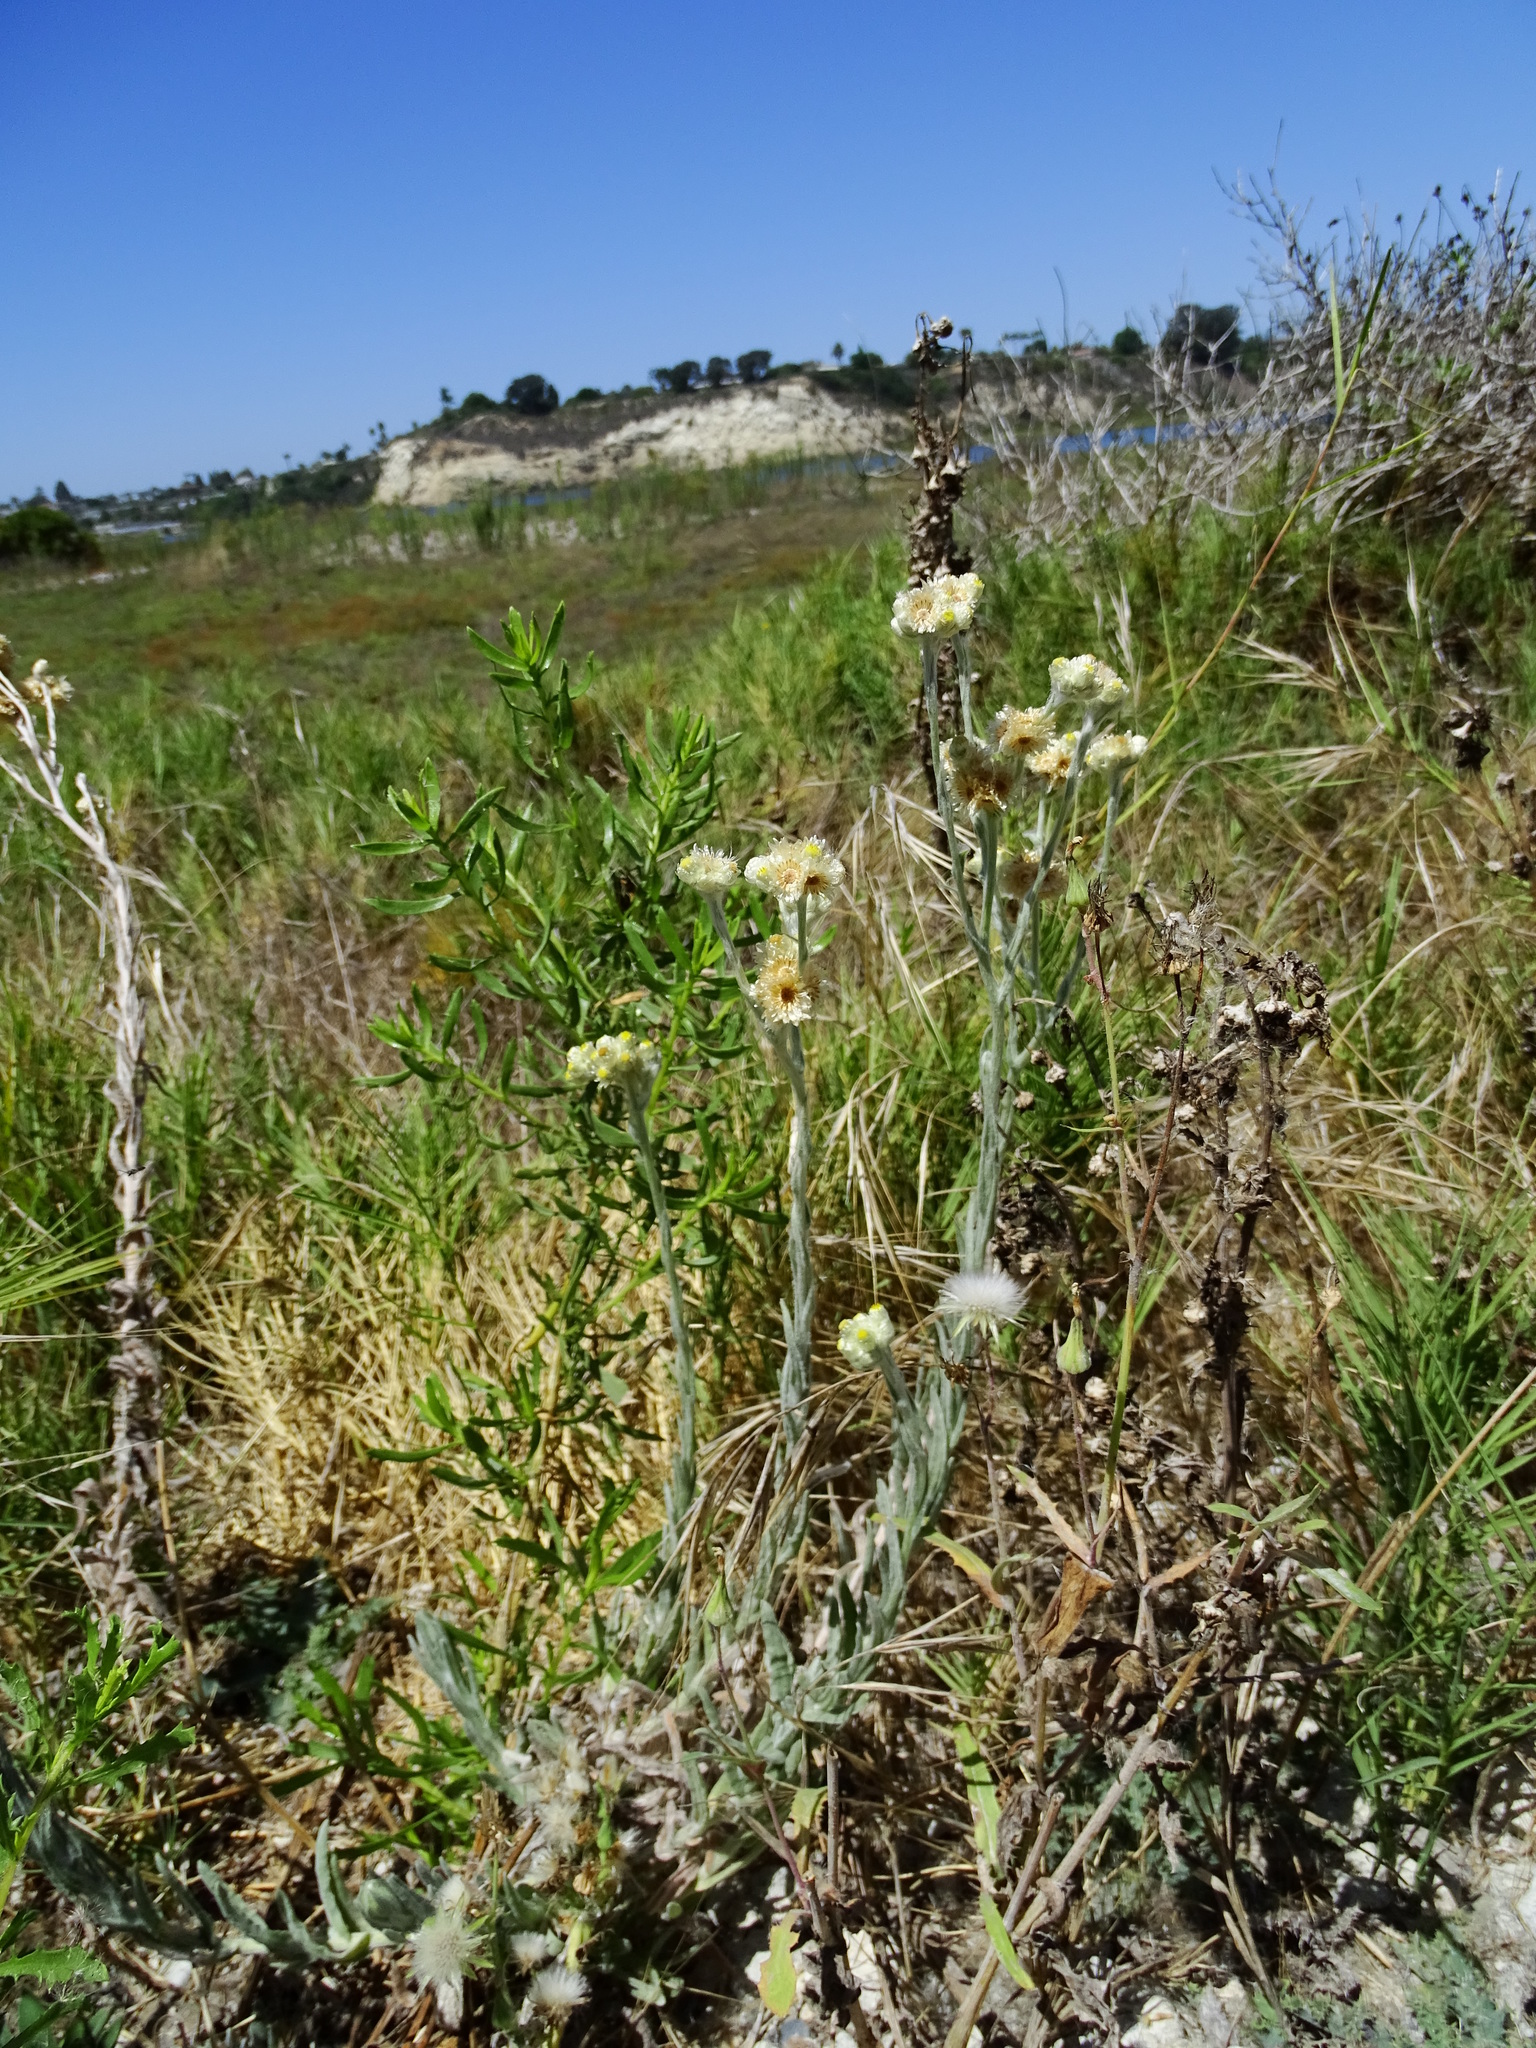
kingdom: Plantae
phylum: Tracheophyta
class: Magnoliopsida
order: Asterales
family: Asteraceae
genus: Pseudognaphalium
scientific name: Pseudognaphalium stramineum
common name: Cotton-batting-plant
